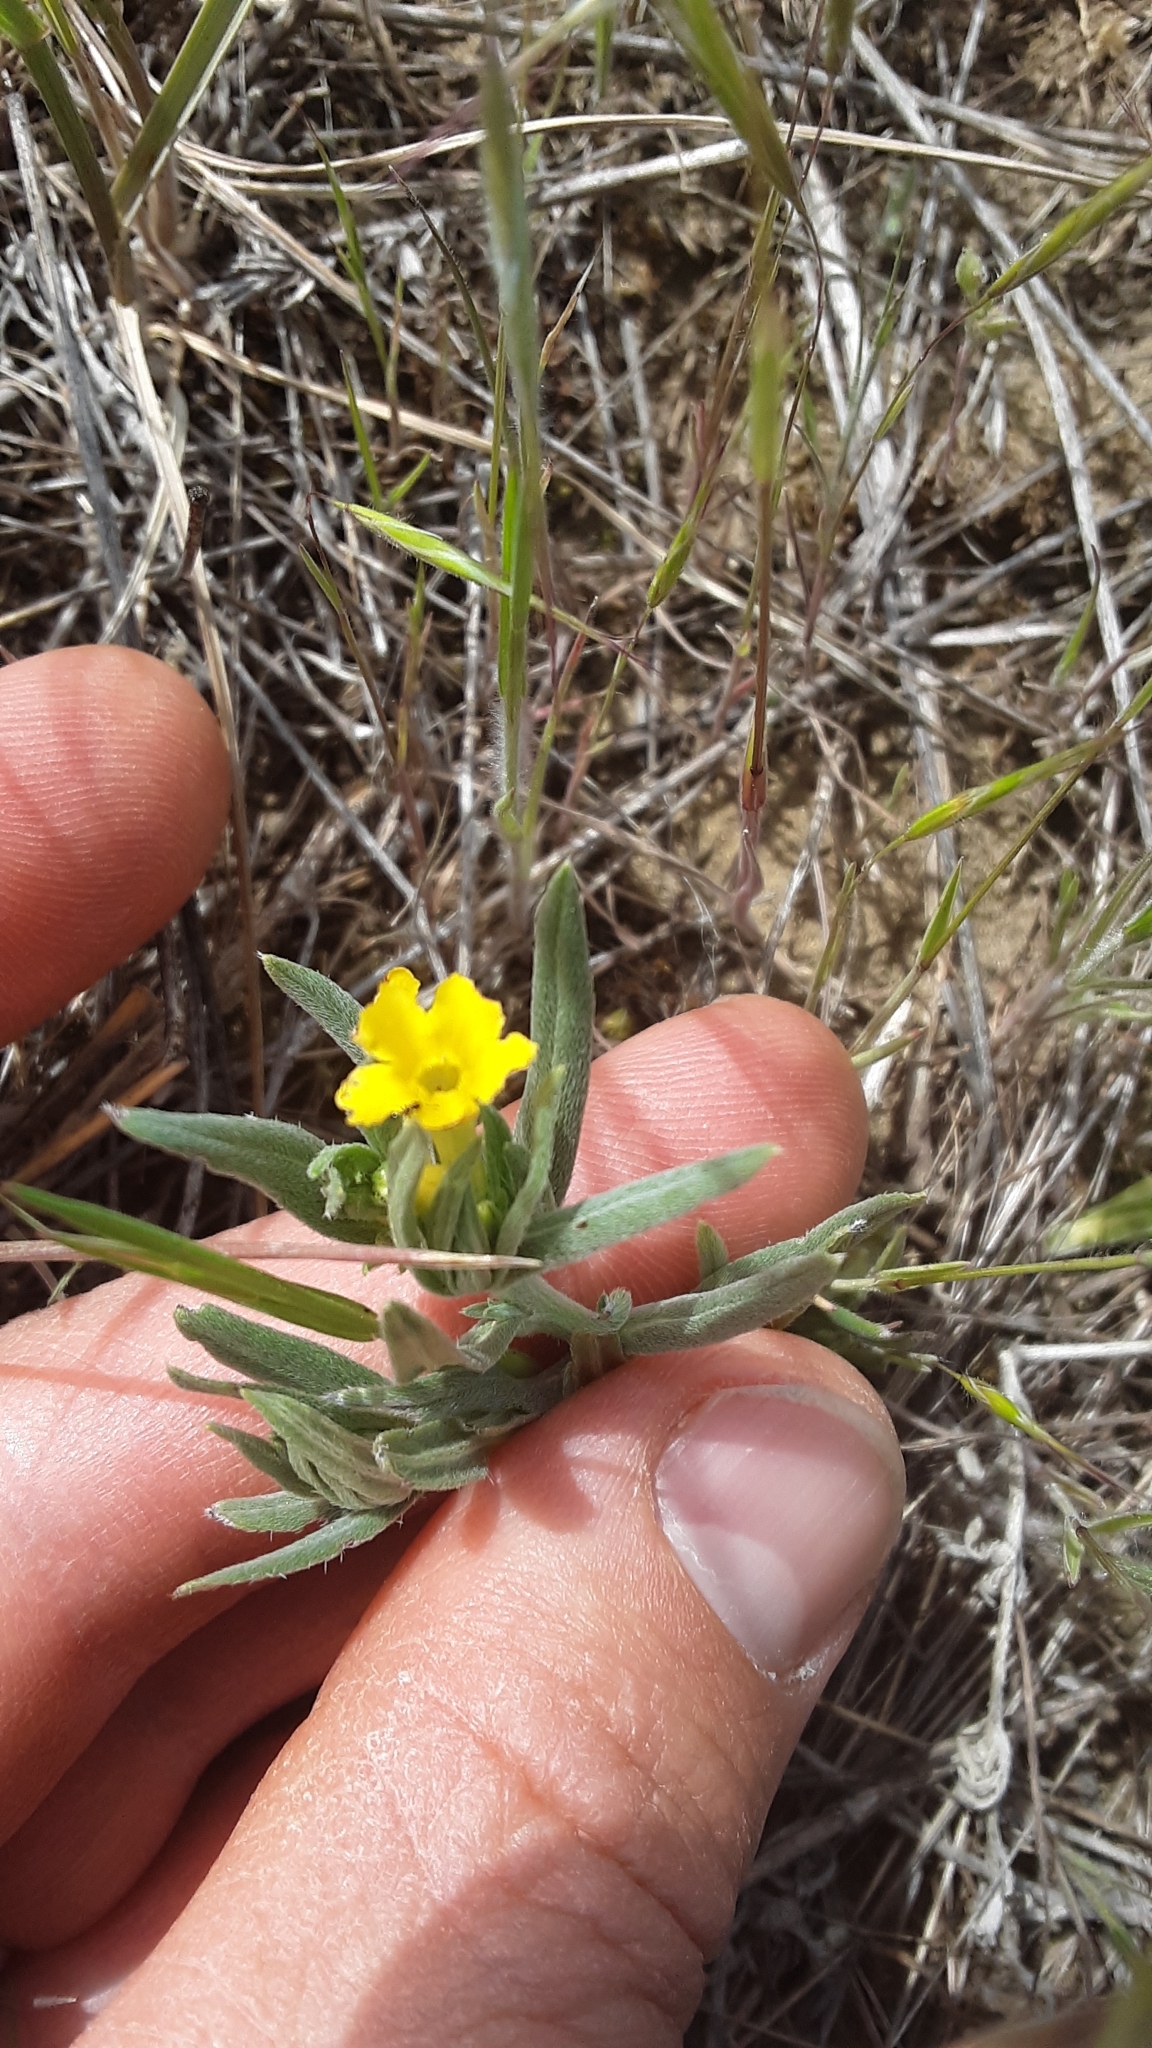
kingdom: Plantae
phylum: Tracheophyta
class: Magnoliopsida
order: Boraginales
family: Boraginaceae
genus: Lithospermum
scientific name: Lithospermum incisum
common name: Fringed gromwell
